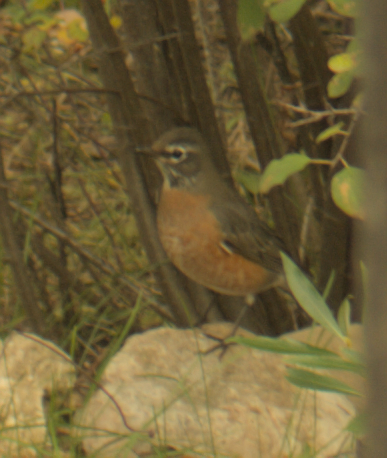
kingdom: Animalia
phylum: Chordata
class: Aves
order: Passeriformes
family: Turdidae
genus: Turdus
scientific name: Turdus migratorius
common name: American robin
